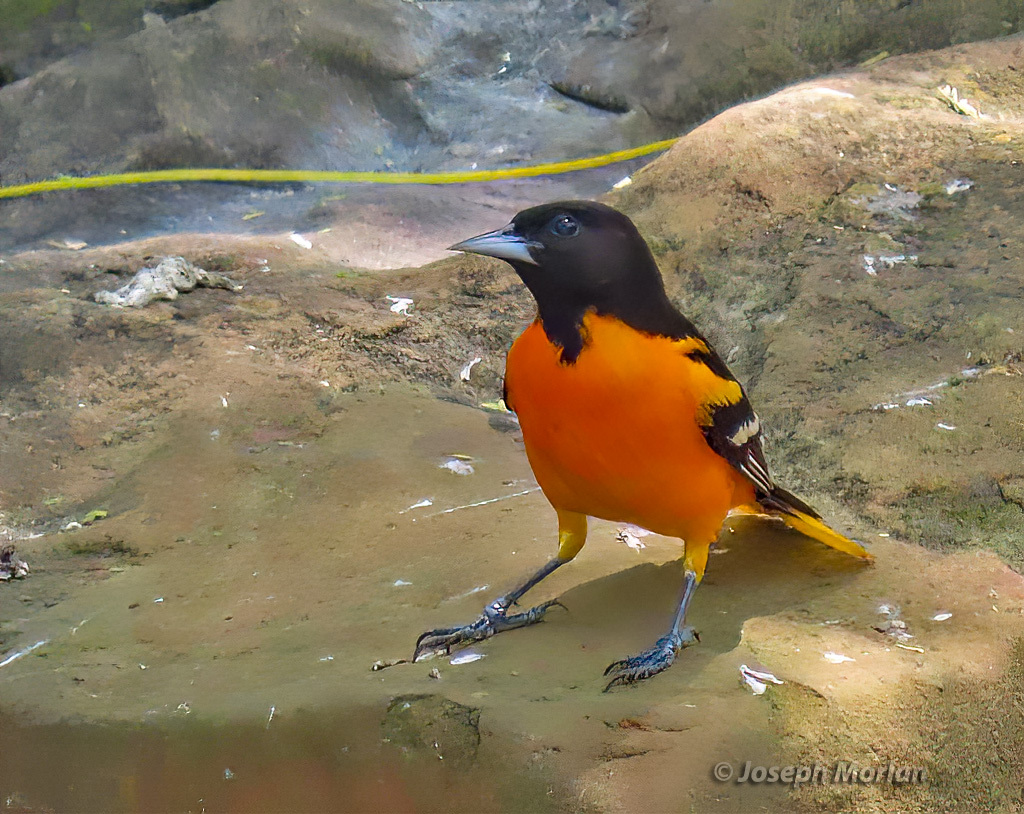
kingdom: Animalia
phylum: Chordata
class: Aves
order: Passeriformes
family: Icteridae
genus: Icterus
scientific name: Icterus galbula
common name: Baltimore oriole
